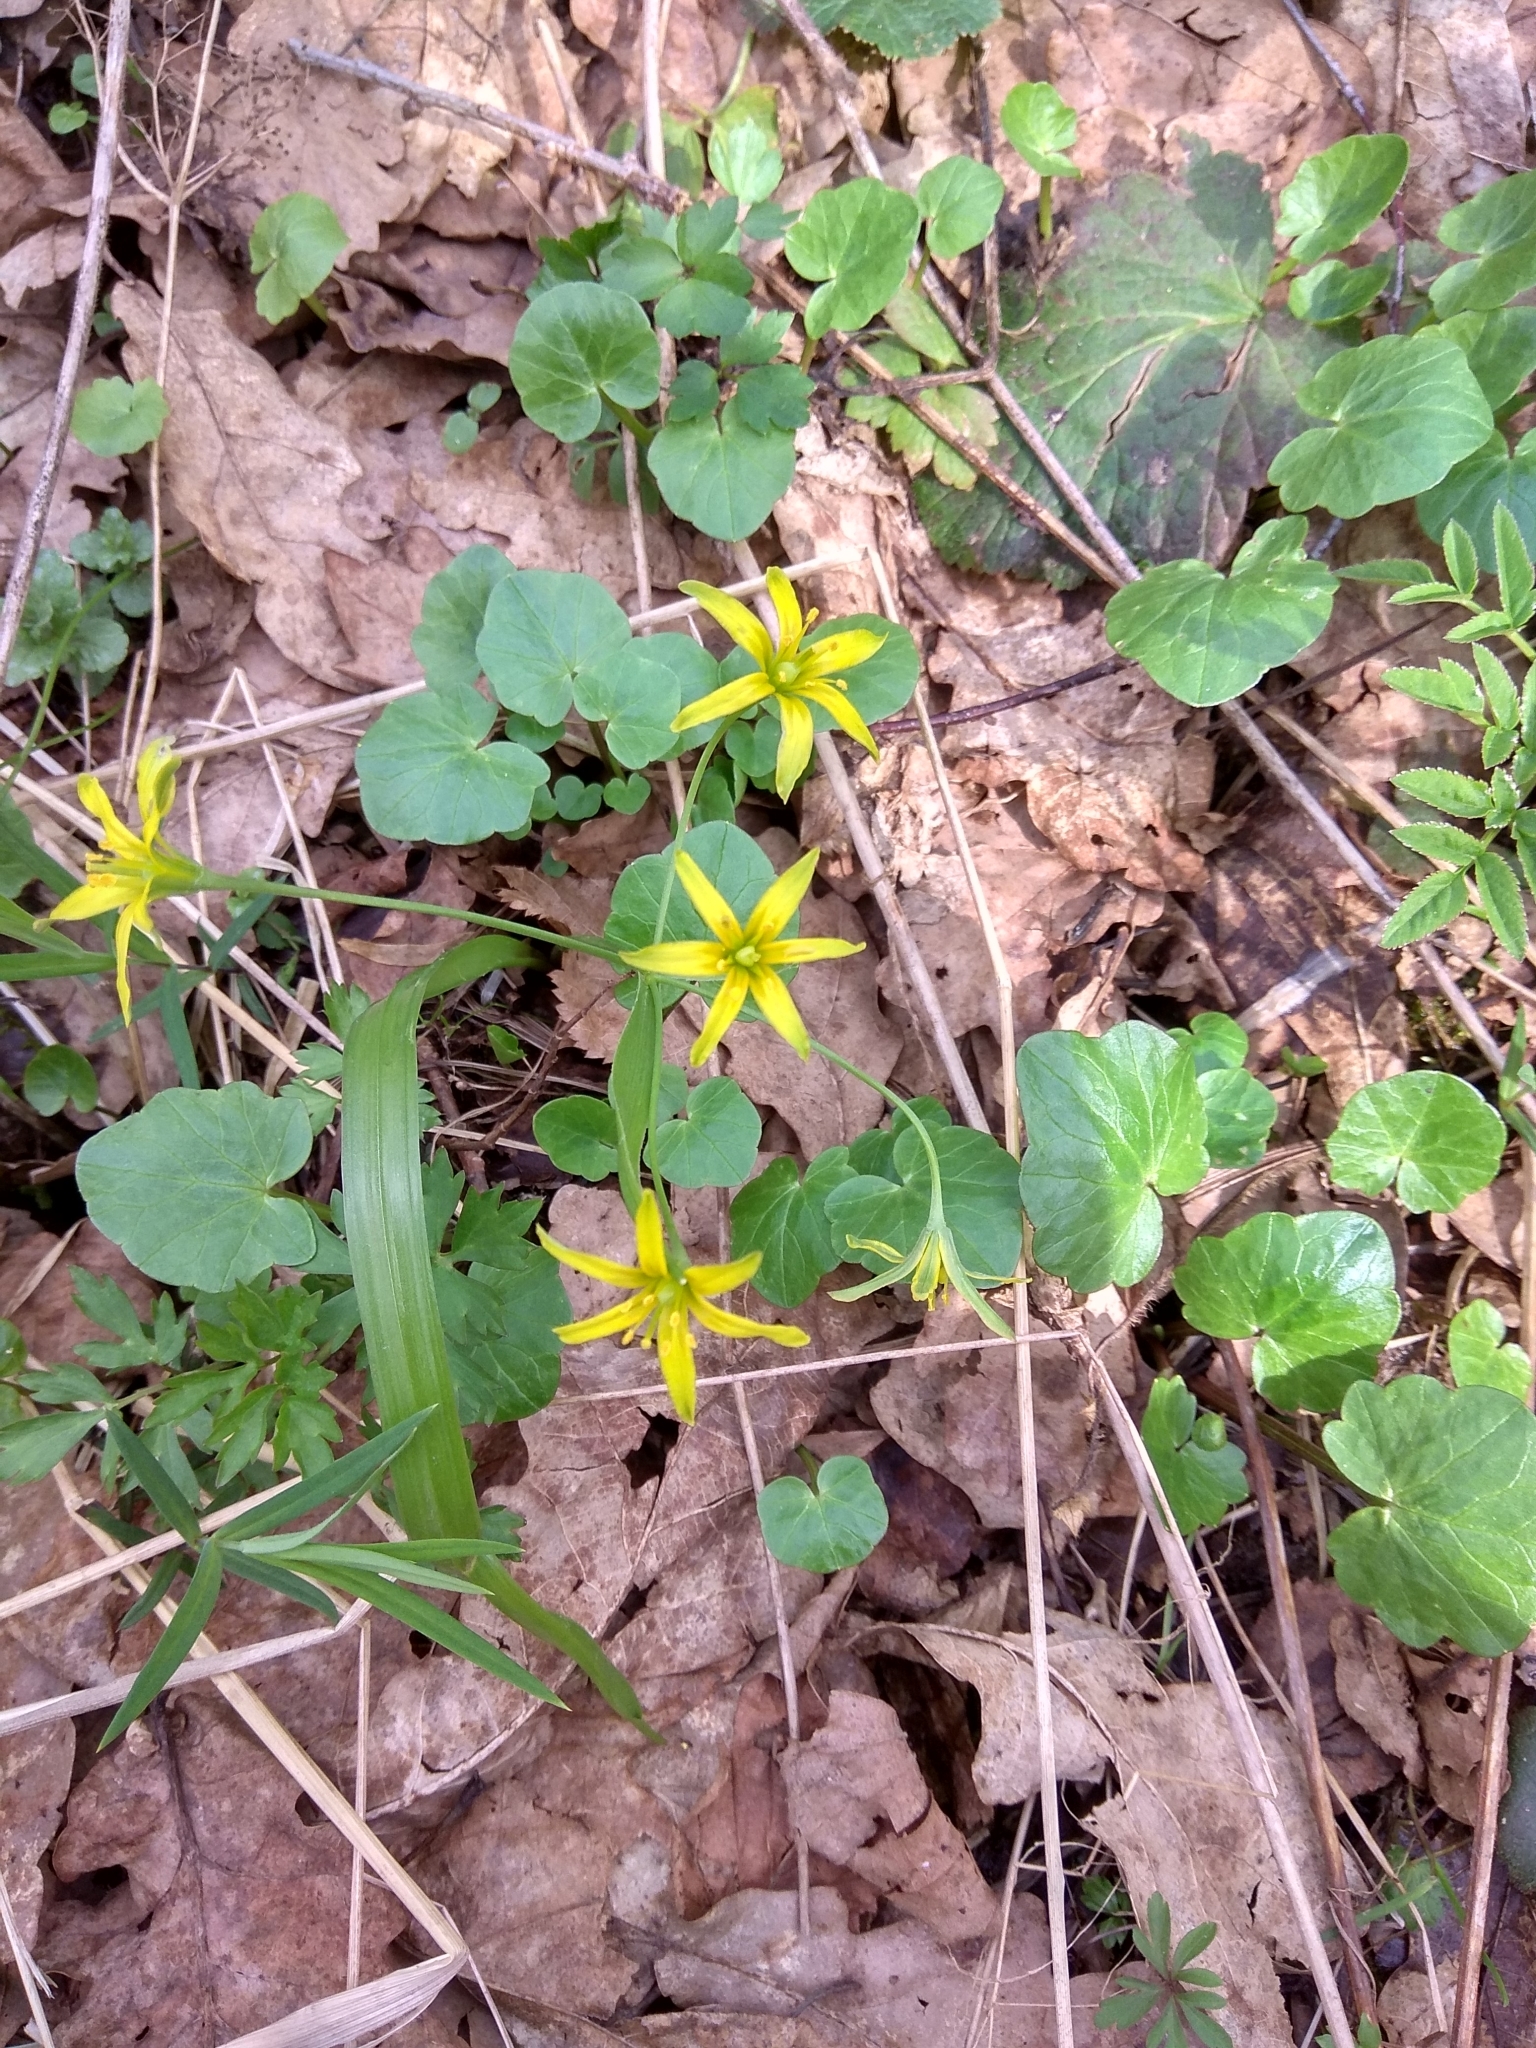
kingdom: Plantae
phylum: Tracheophyta
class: Liliopsida
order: Liliales
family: Liliaceae
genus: Gagea
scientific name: Gagea lutea
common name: Yellow star-of-bethlehem
